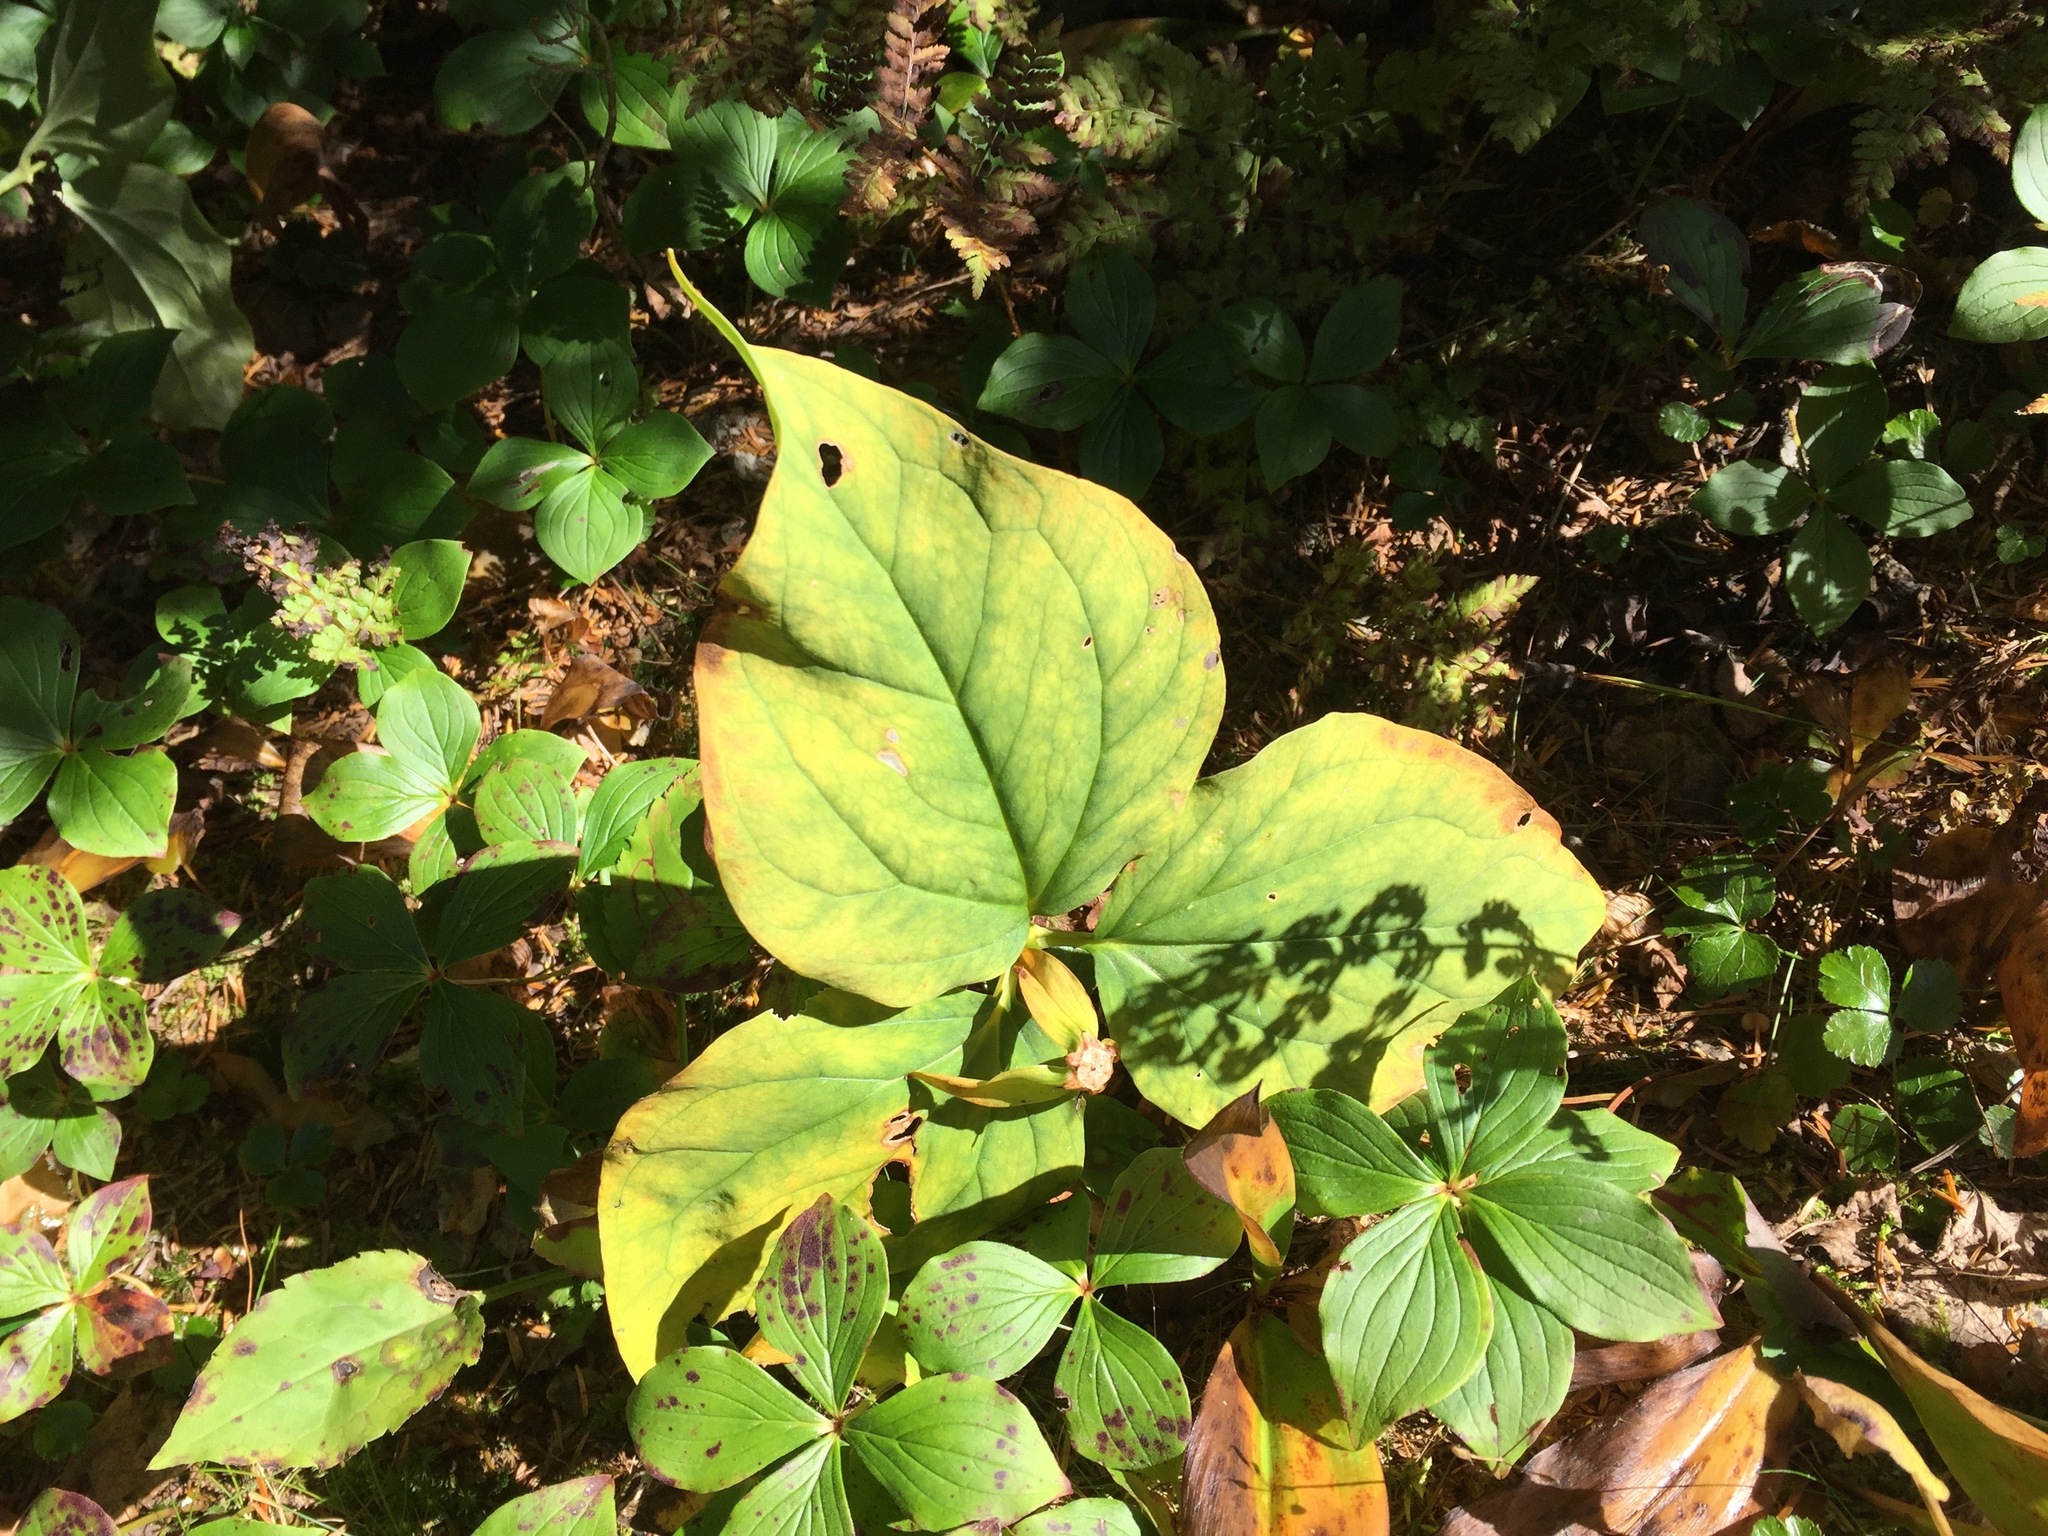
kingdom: Plantae
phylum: Tracheophyta
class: Liliopsida
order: Liliales
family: Melanthiaceae
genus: Trillium
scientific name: Trillium undulatum
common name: Paint trillium
